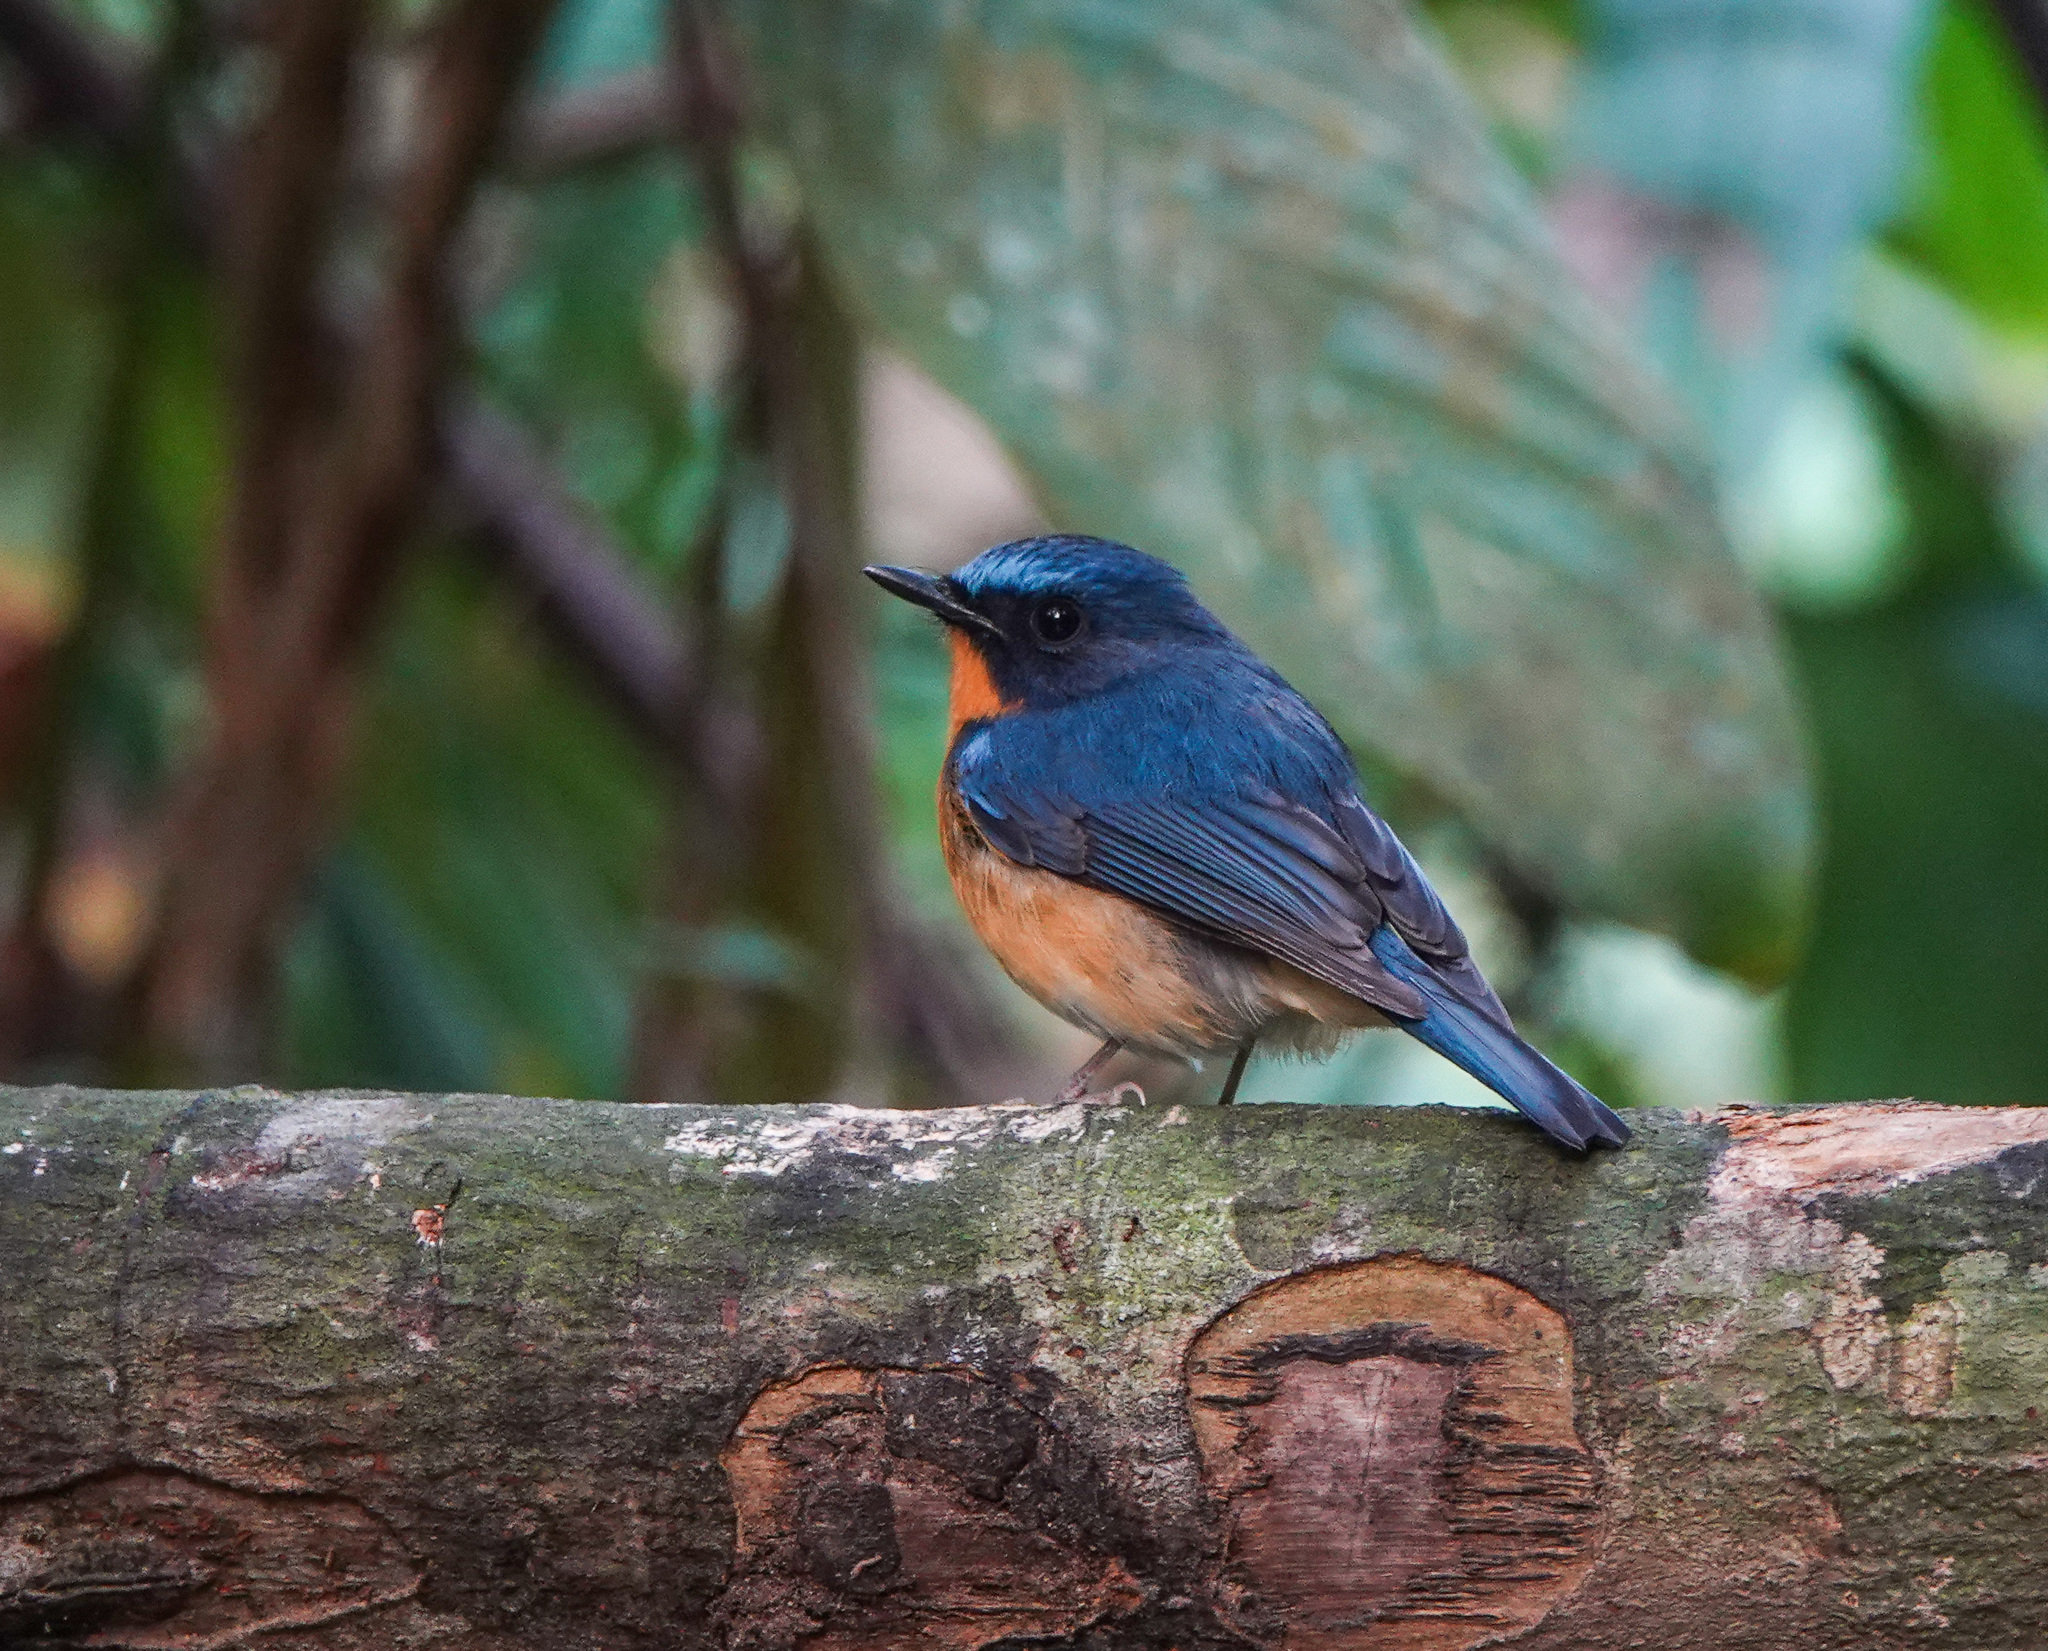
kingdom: Animalia
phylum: Chordata
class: Aves
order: Passeriformes
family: Muscicapidae
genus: Cyornis
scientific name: Cyornis whitei
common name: Hill blue flycatcher
